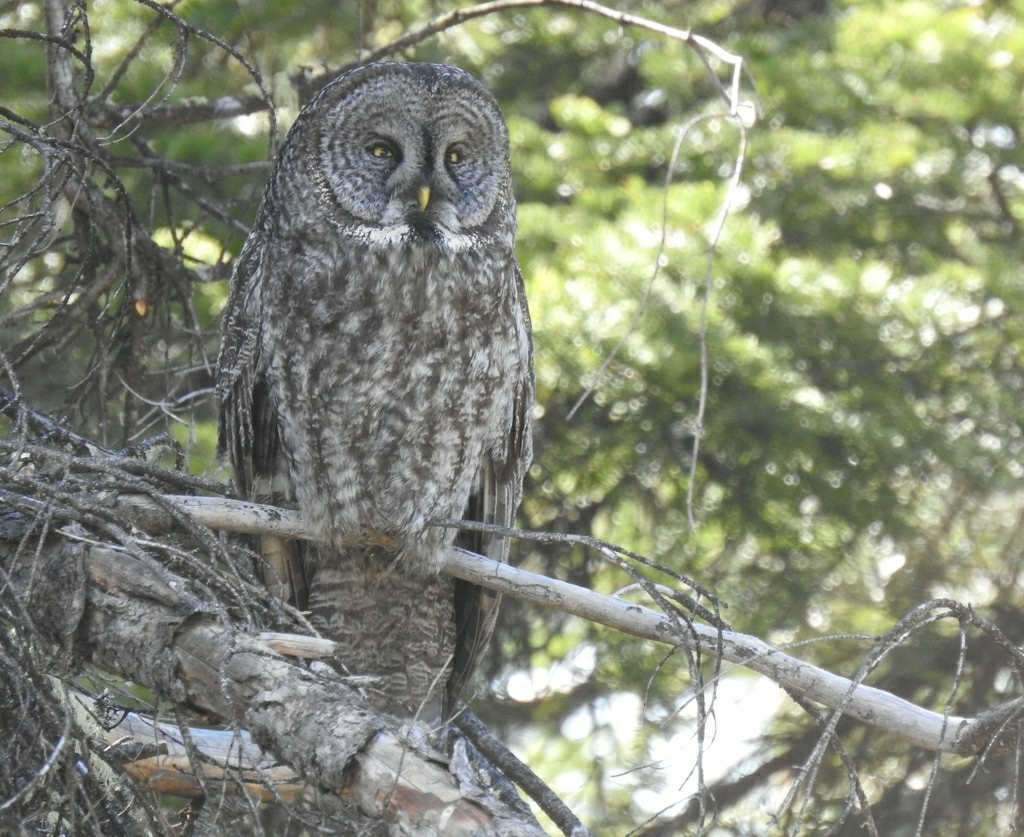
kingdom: Animalia
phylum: Chordata
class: Aves
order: Strigiformes
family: Strigidae
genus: Strix
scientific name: Strix nebulosa
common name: Great grey owl
